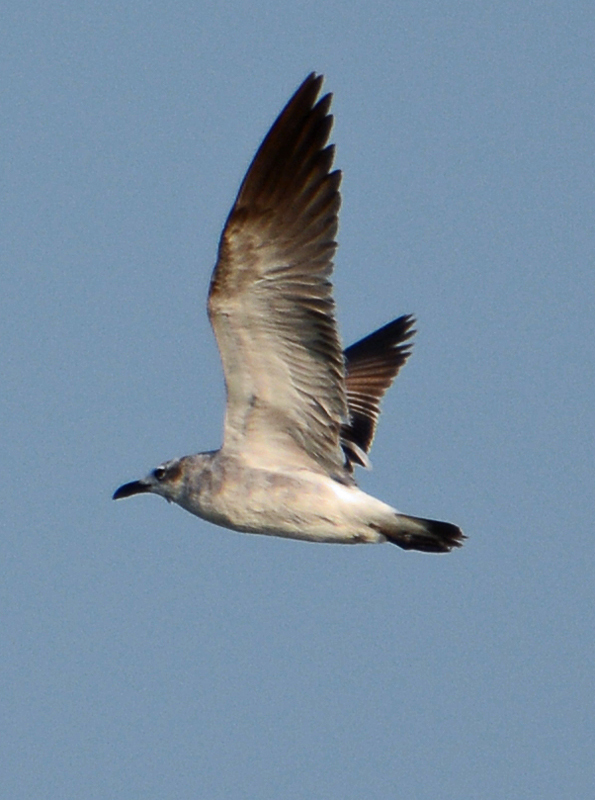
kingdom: Animalia
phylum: Chordata
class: Aves
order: Charadriiformes
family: Laridae
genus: Leucophaeus
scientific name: Leucophaeus atricilla
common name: Laughing gull
